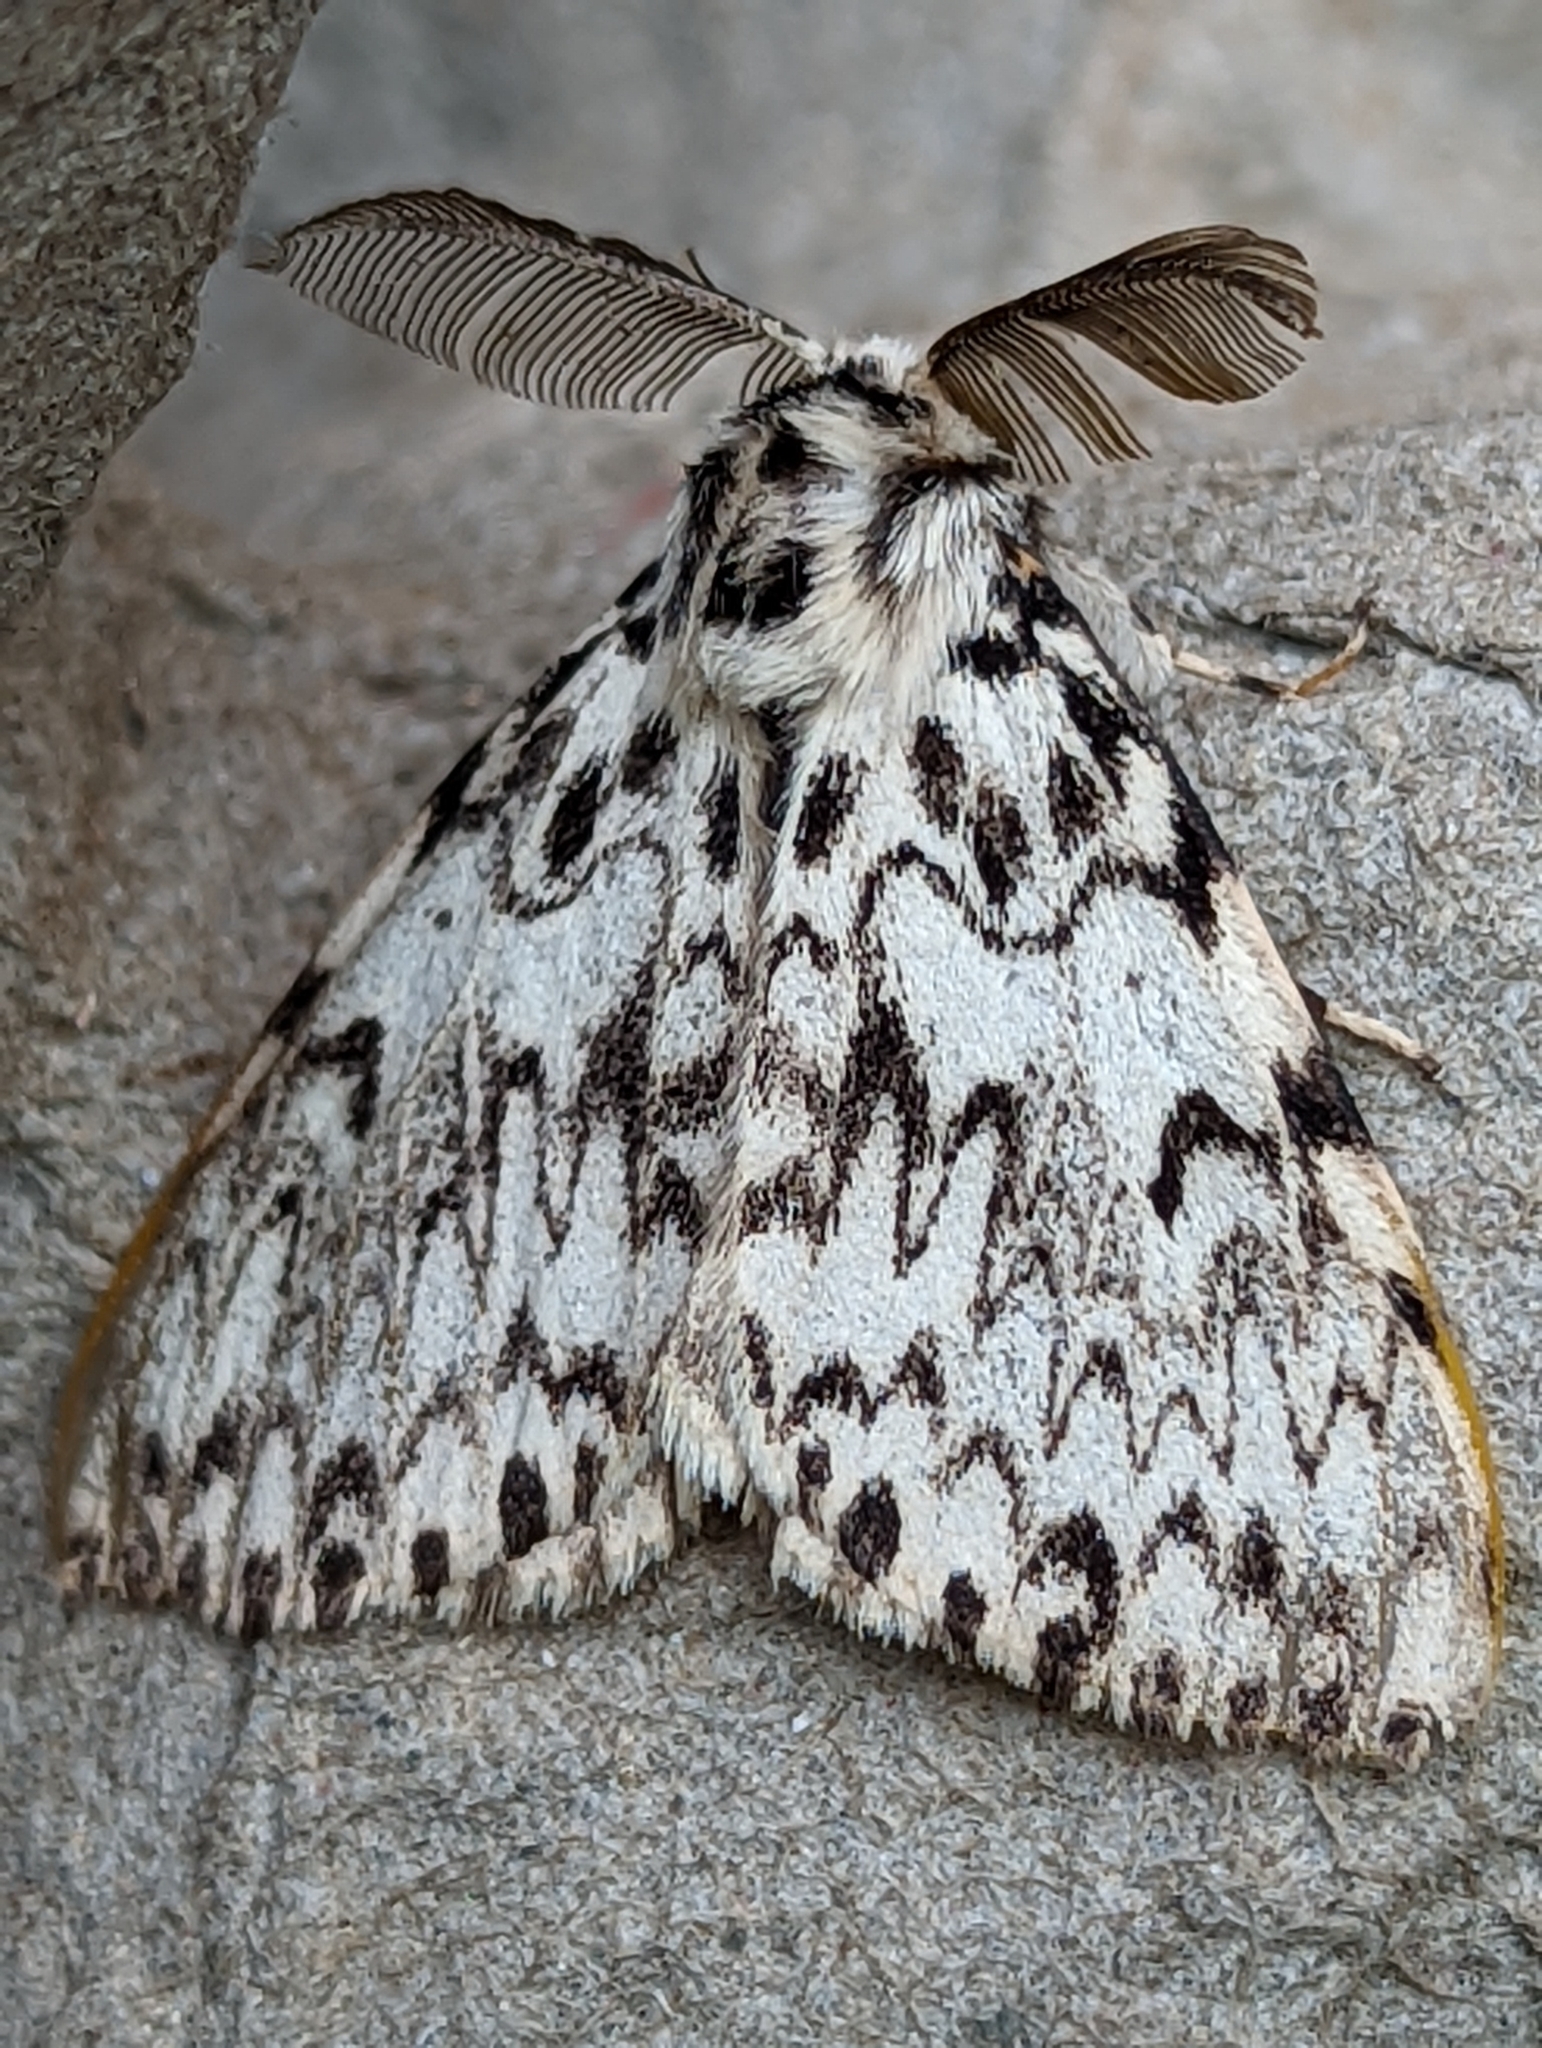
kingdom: Animalia
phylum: Arthropoda
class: Insecta
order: Lepidoptera
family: Erebidae
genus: Lymantria
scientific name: Lymantria monacha
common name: Black arches
